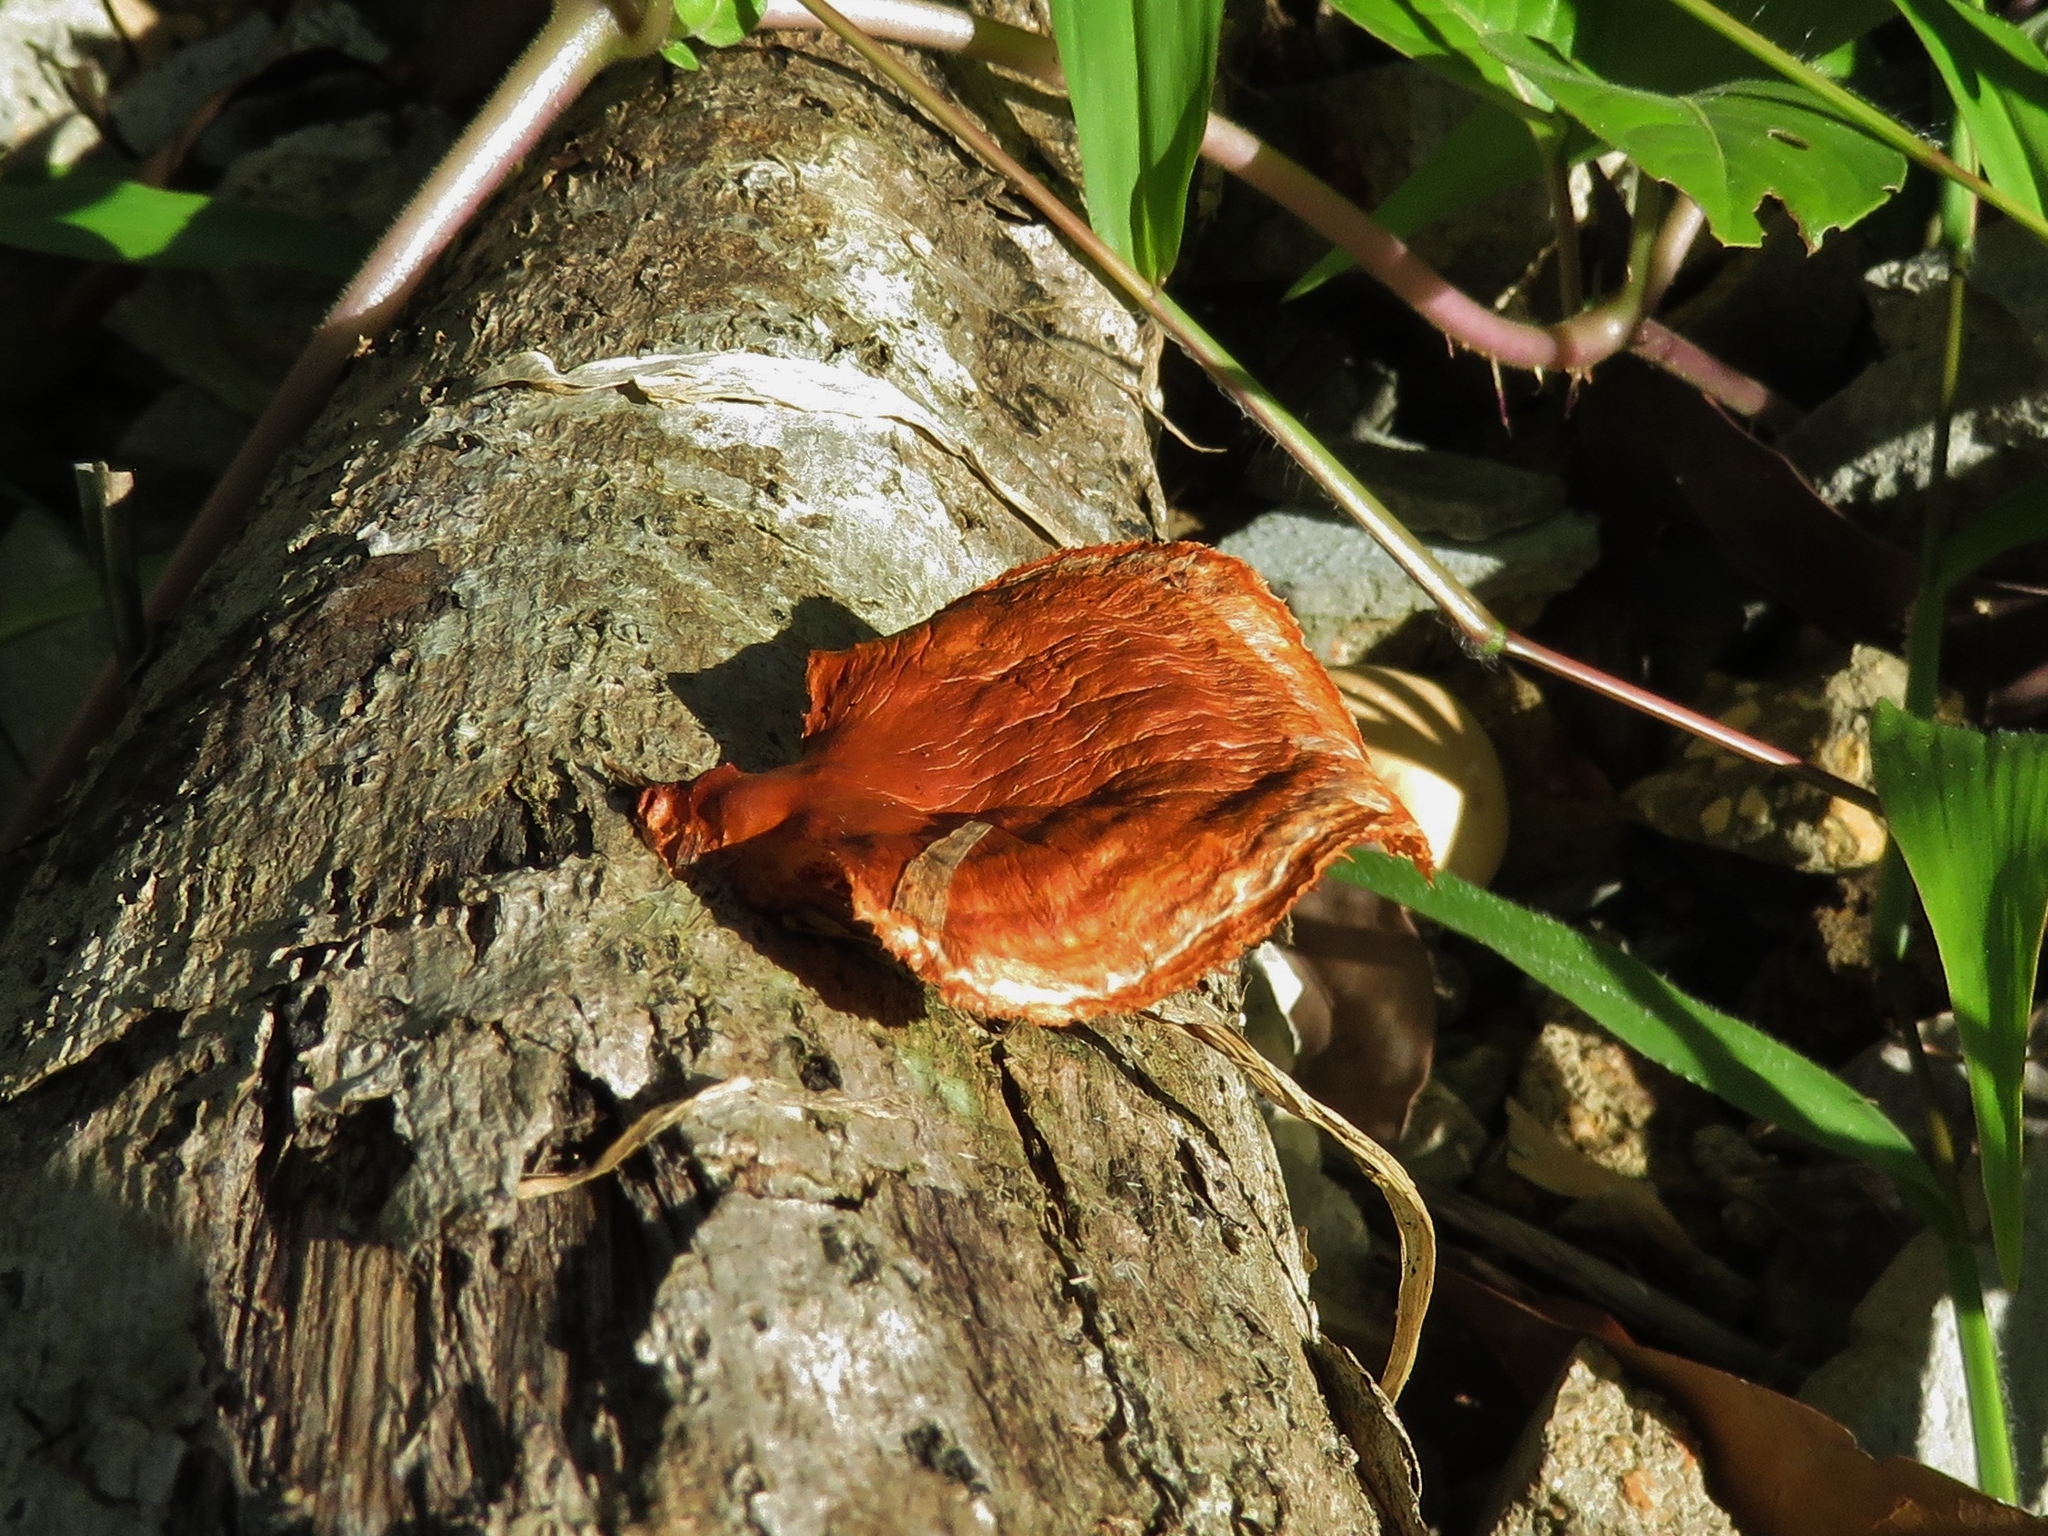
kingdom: Fungi
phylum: Basidiomycota
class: Agaricomycetes
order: Polyporales
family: Polyporaceae
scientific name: Polyporaceae
